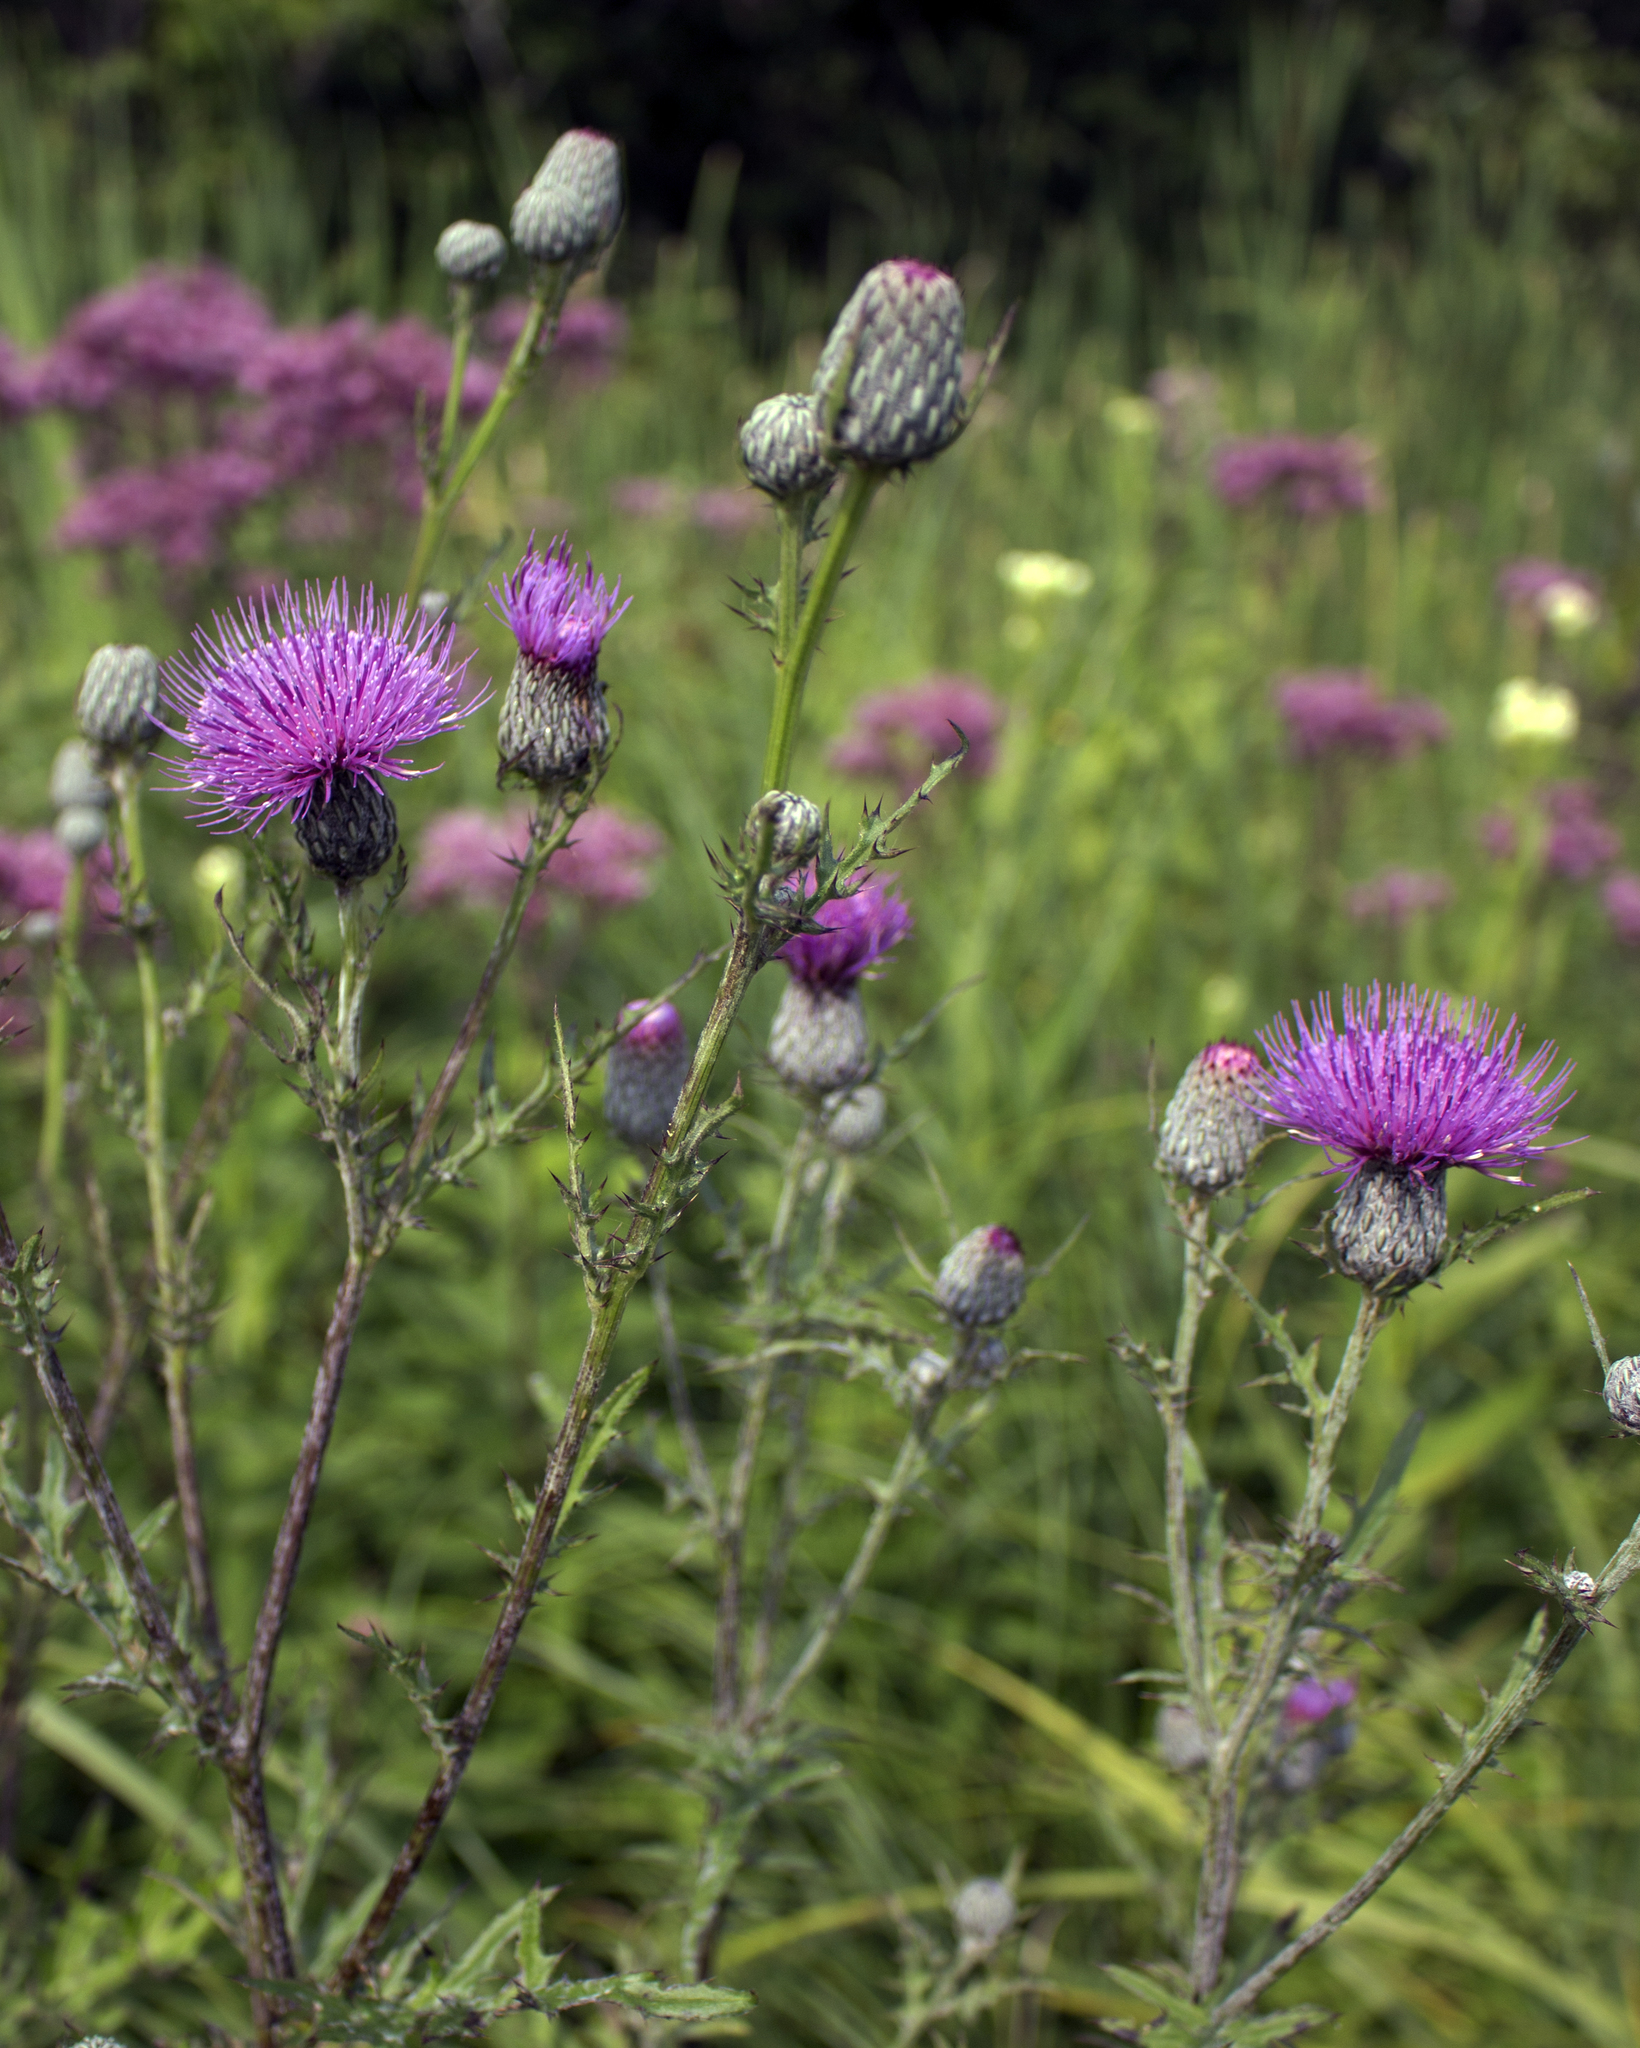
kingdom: Plantae
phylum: Tracheophyta
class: Magnoliopsida
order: Asterales
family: Asteraceae
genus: Cirsium
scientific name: Cirsium muticum
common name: Dunce-nettle
